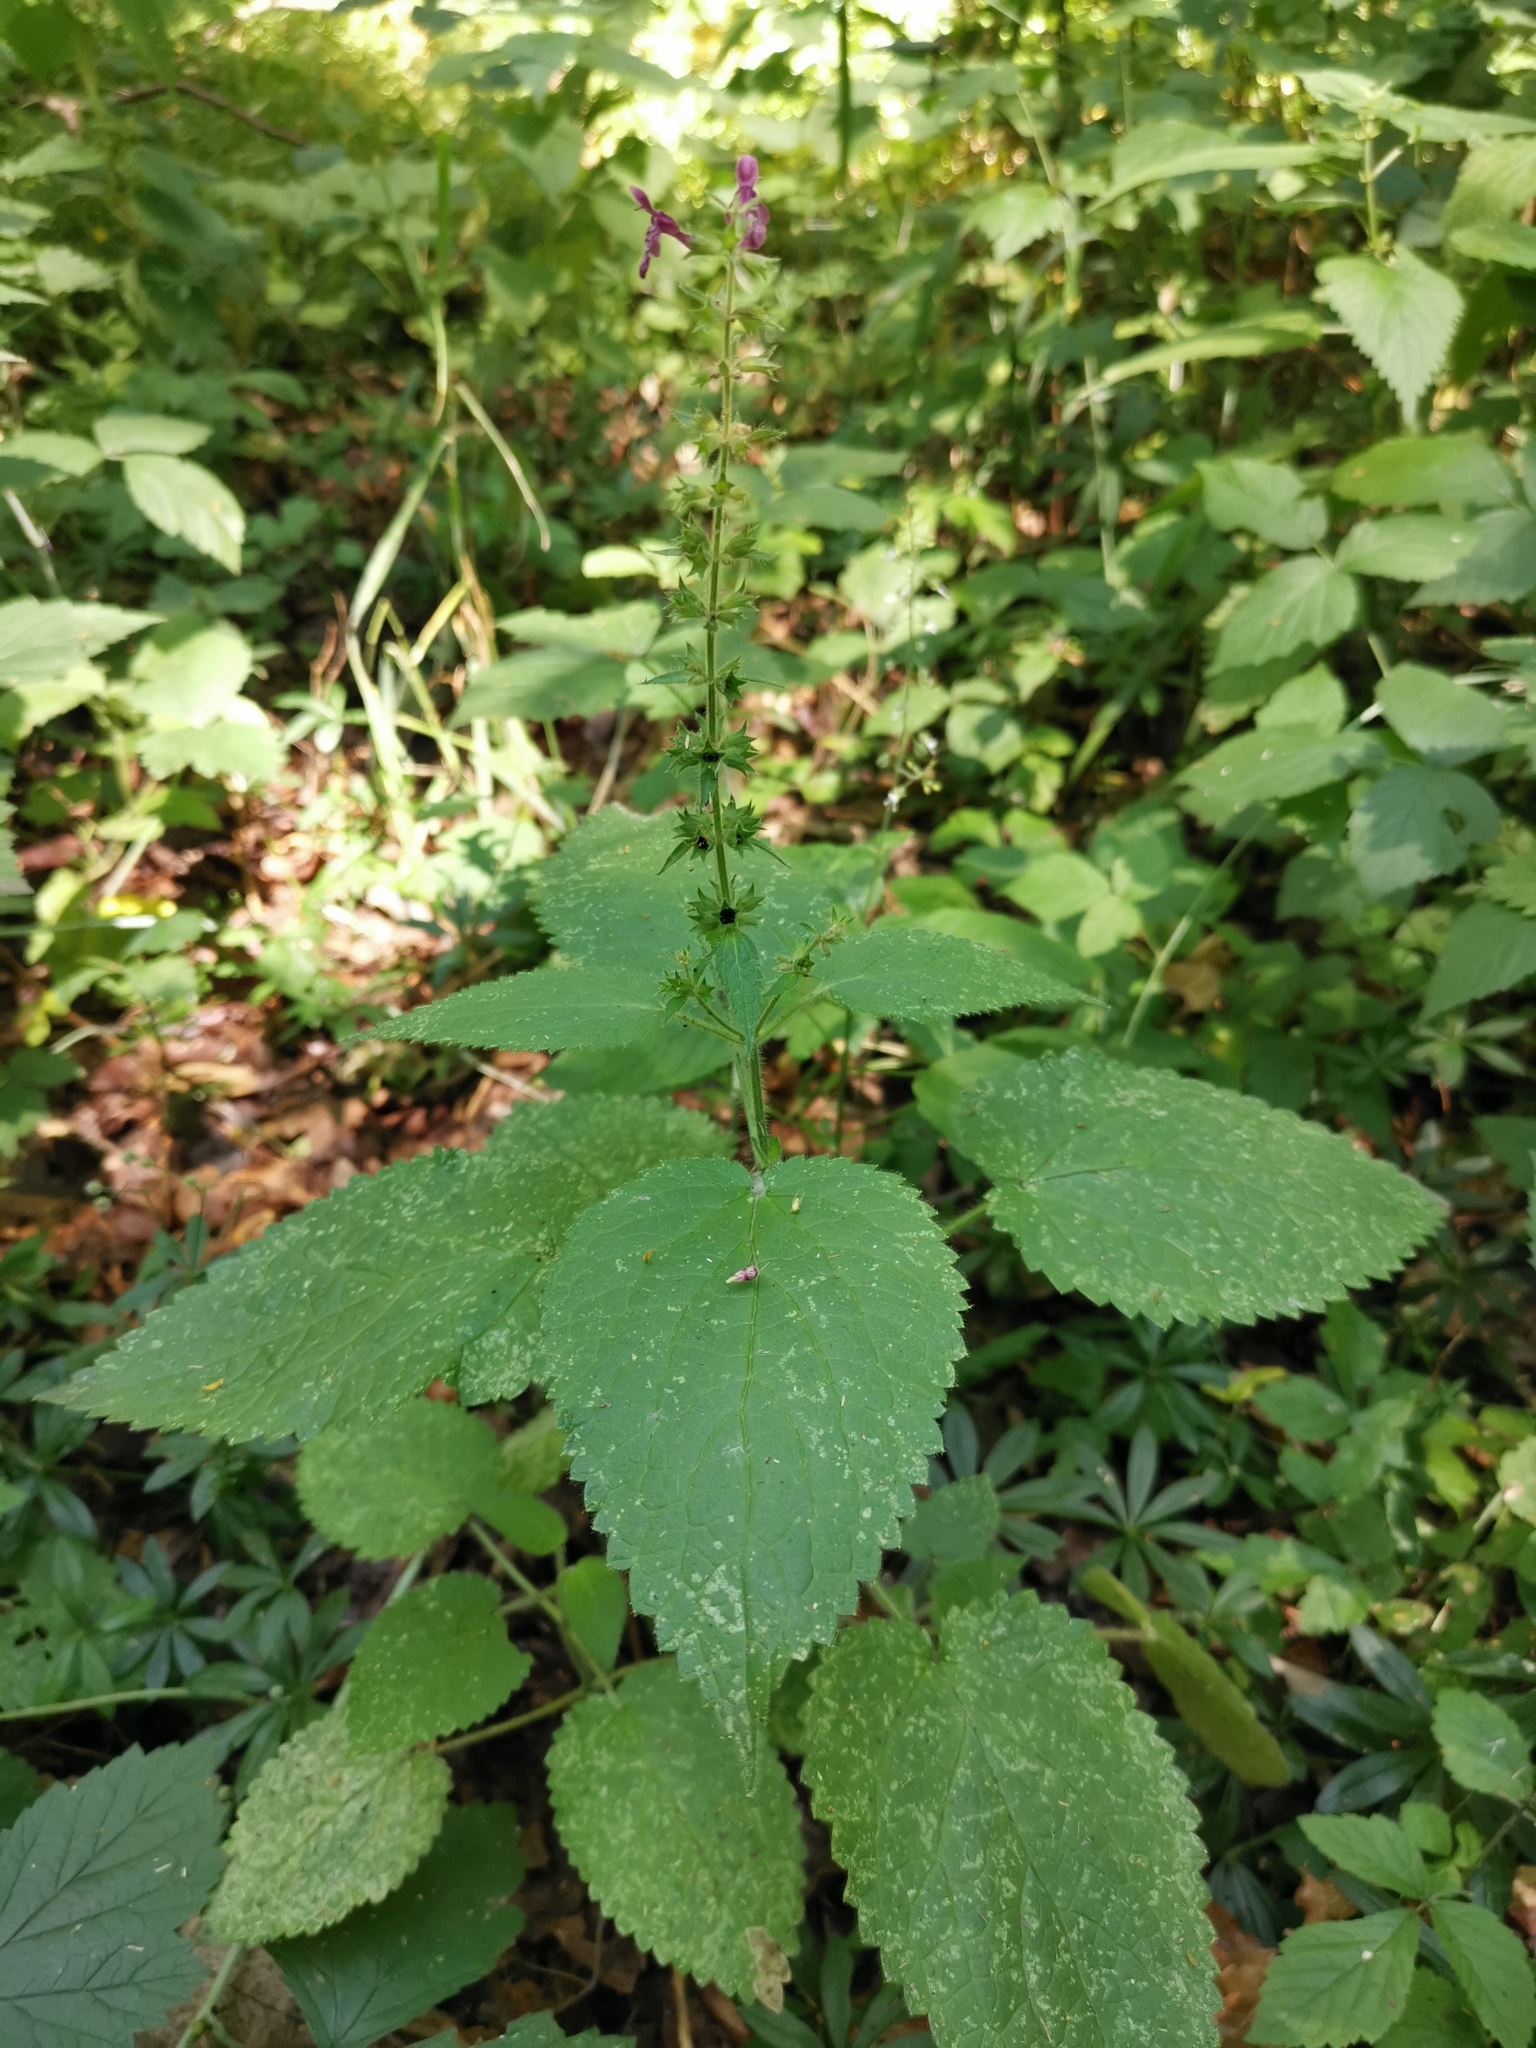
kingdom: Plantae
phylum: Tracheophyta
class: Magnoliopsida
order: Lamiales
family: Lamiaceae
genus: Stachys
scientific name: Stachys sylvatica
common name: Hedge woundwort
